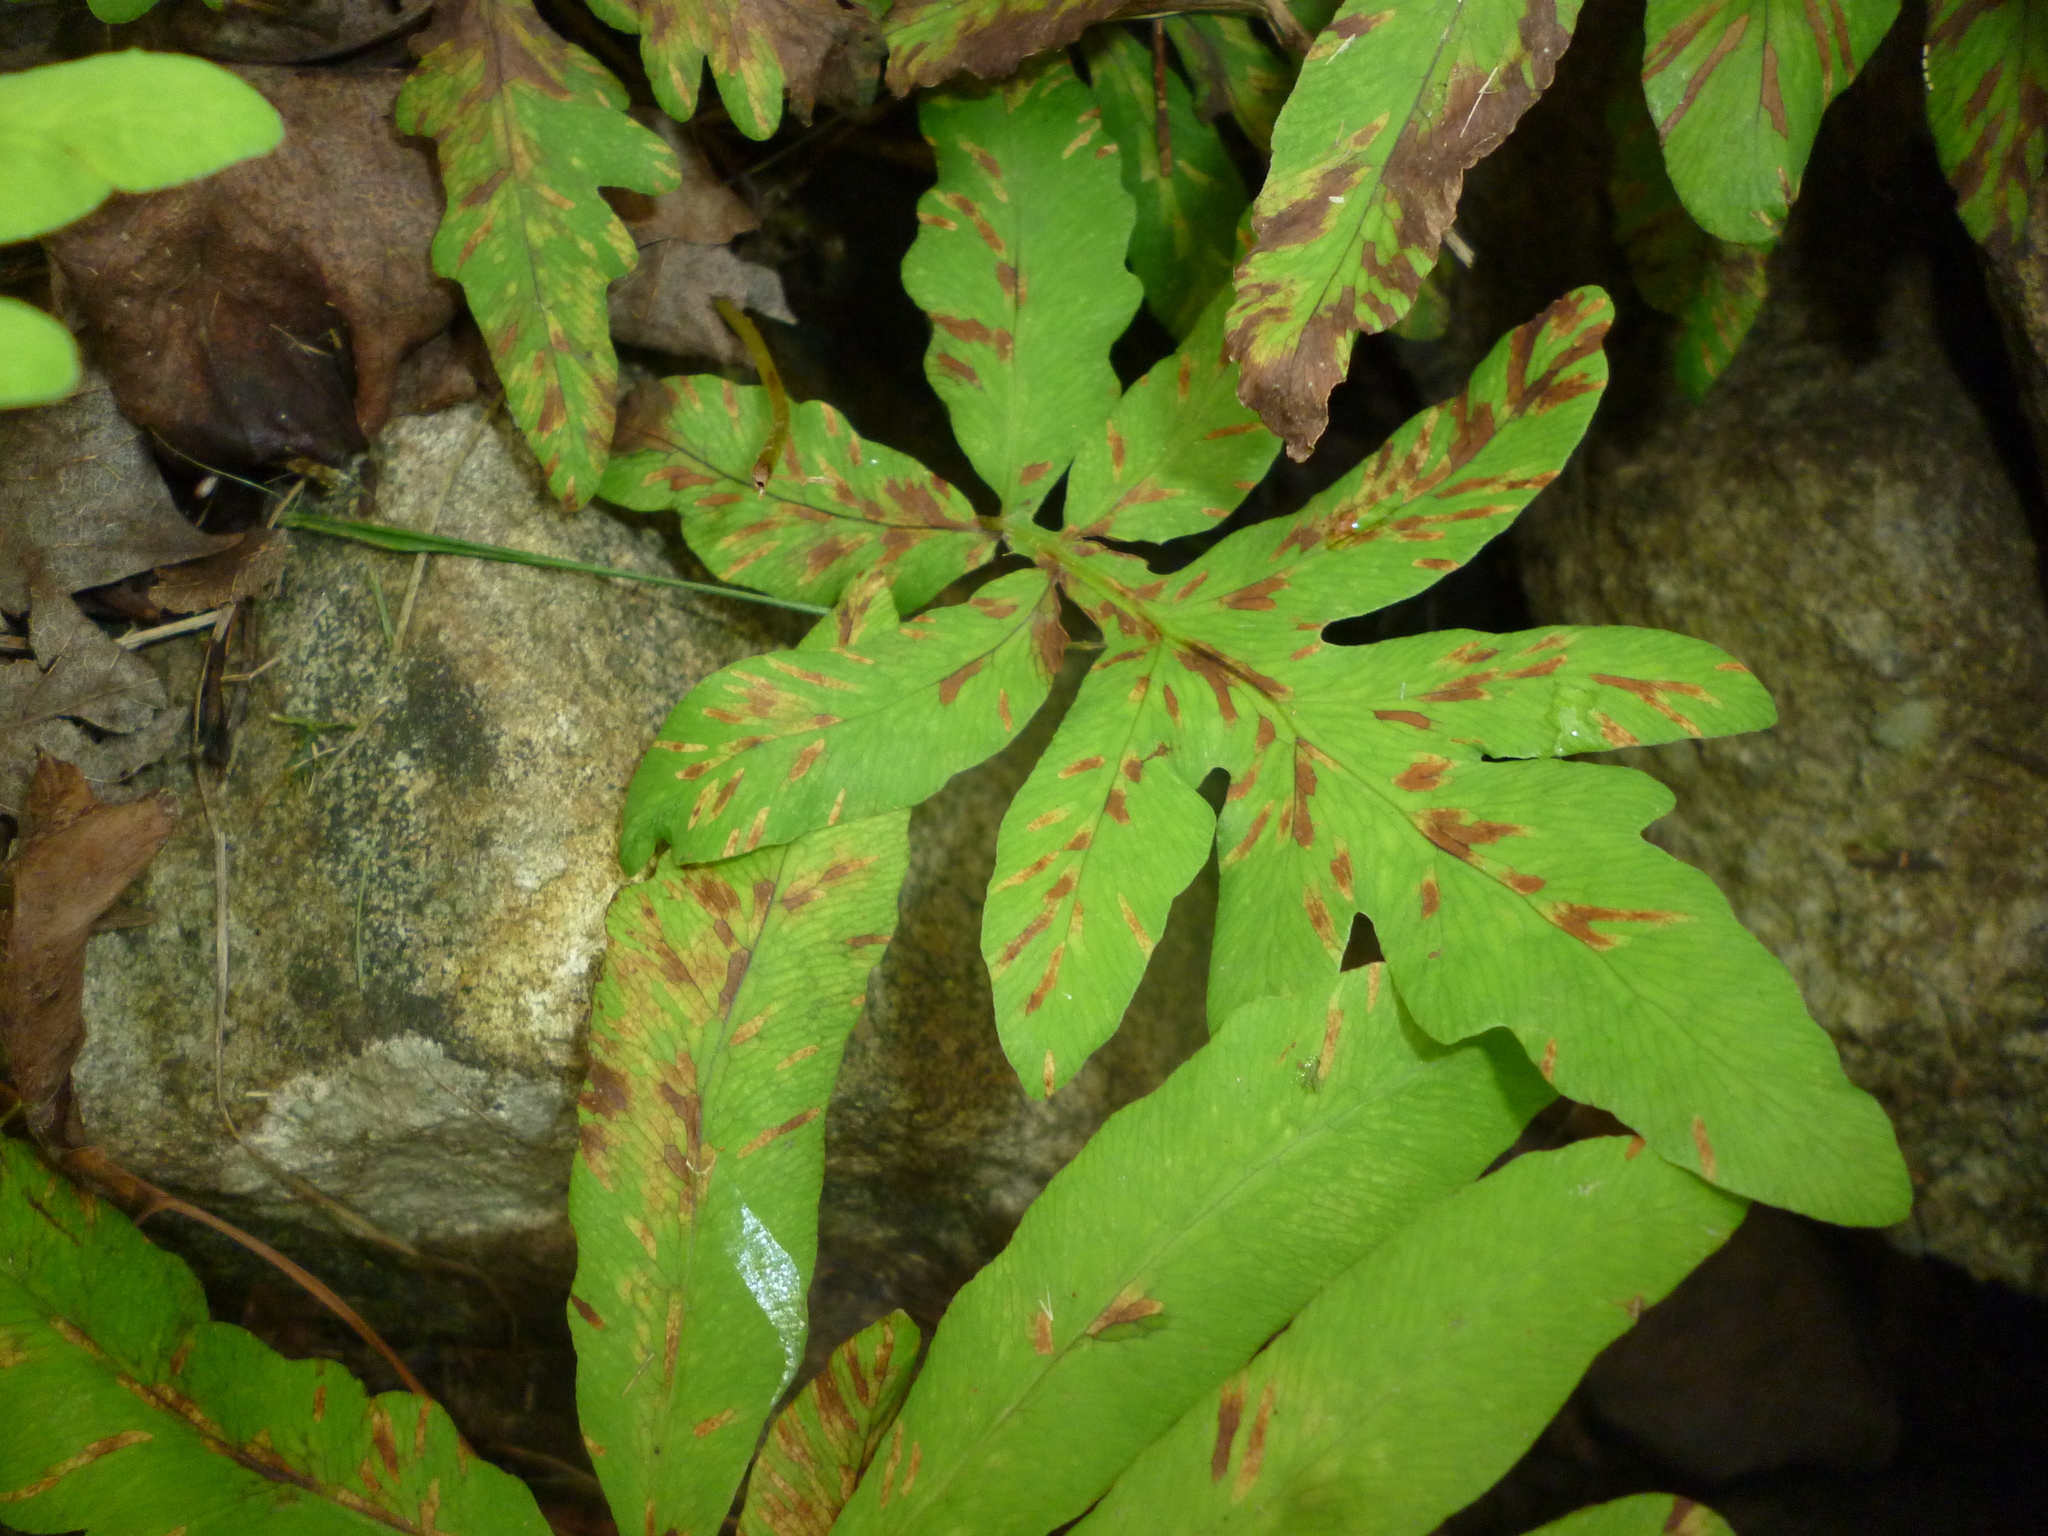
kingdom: Plantae
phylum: Tracheophyta
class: Polypodiopsida
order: Polypodiales
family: Onocleaceae
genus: Onoclea
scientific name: Onoclea sensibilis
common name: Sensitive fern
